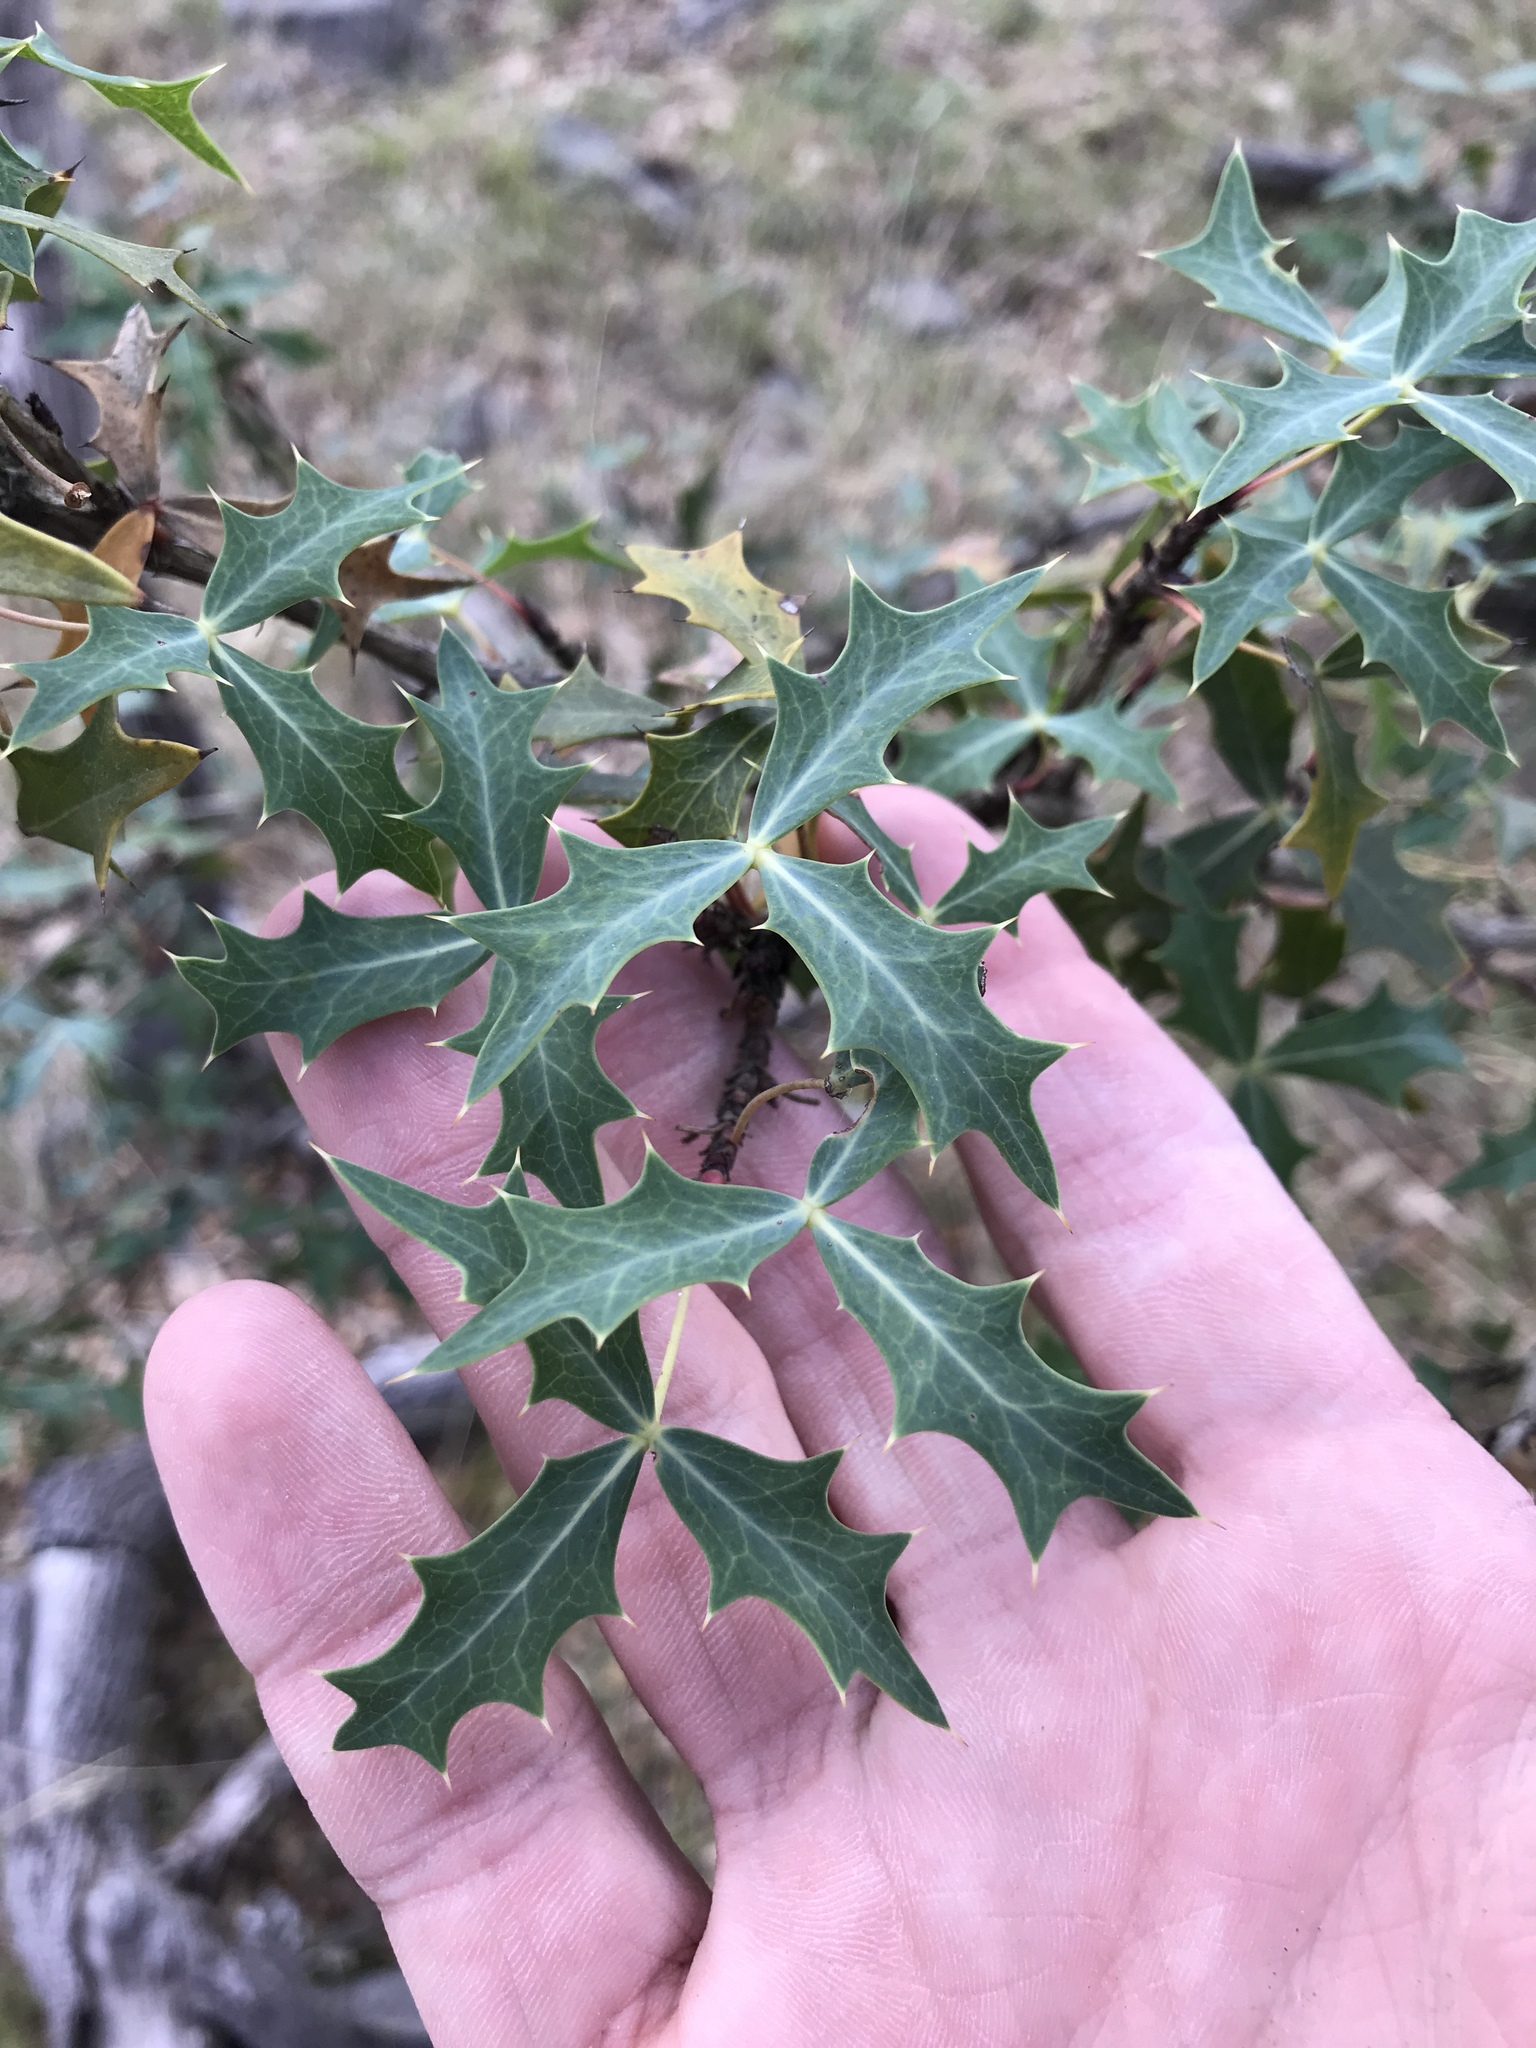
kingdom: Plantae
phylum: Tracheophyta
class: Magnoliopsida
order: Ranunculales
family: Berberidaceae
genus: Alloberberis
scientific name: Alloberberis trifoliolata
